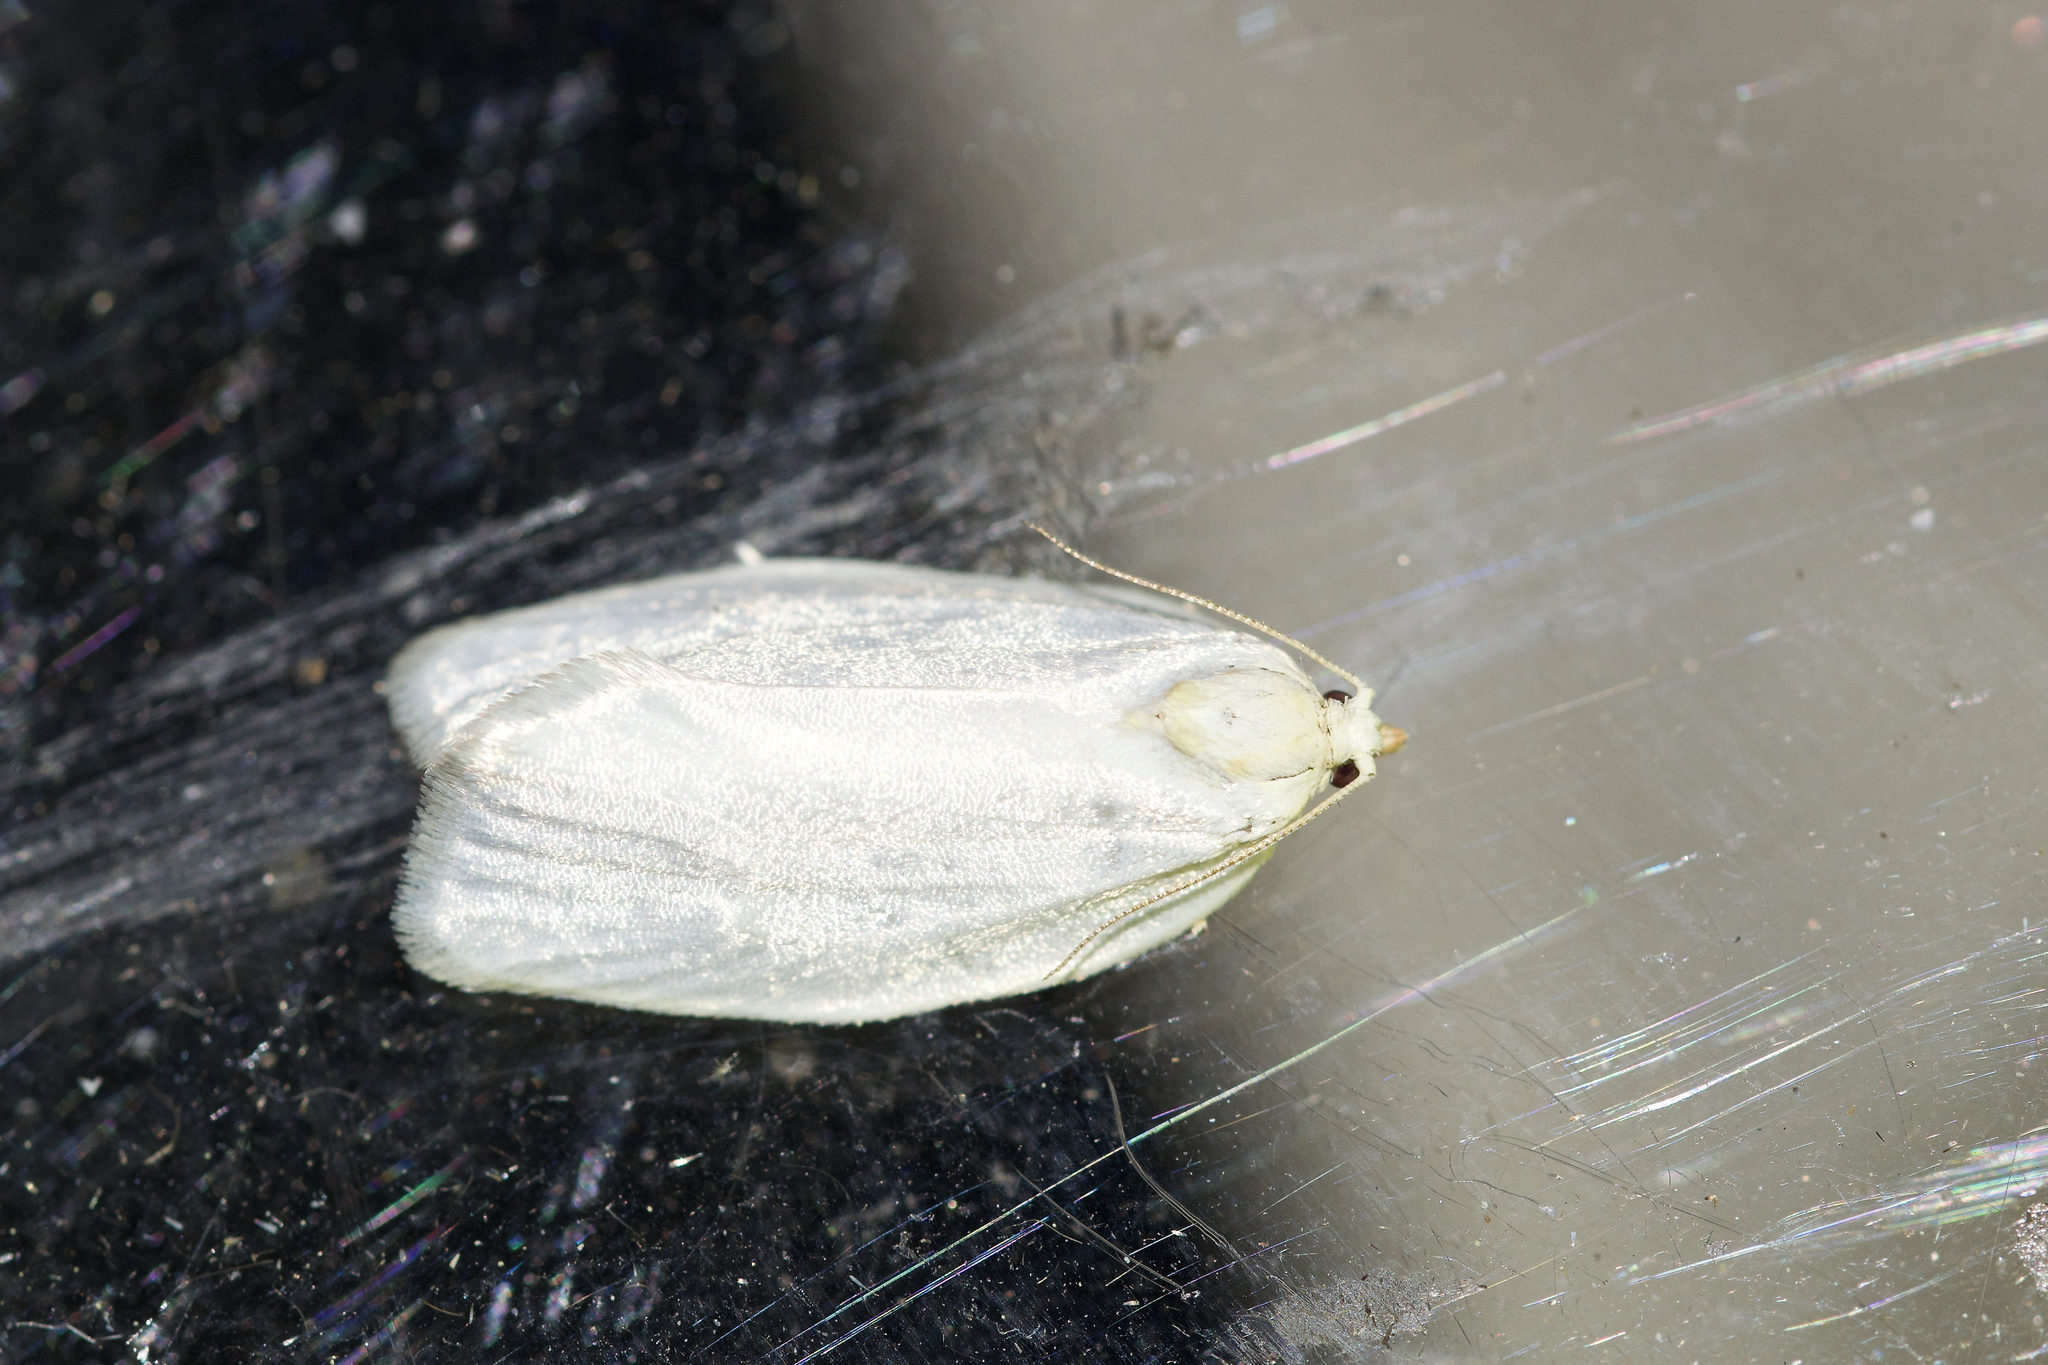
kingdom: Animalia
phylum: Arthropoda
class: Insecta
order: Lepidoptera
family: Tortricidae
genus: Cenopis
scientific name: Cenopis pettitana
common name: Maple-basswood leafroller moth
